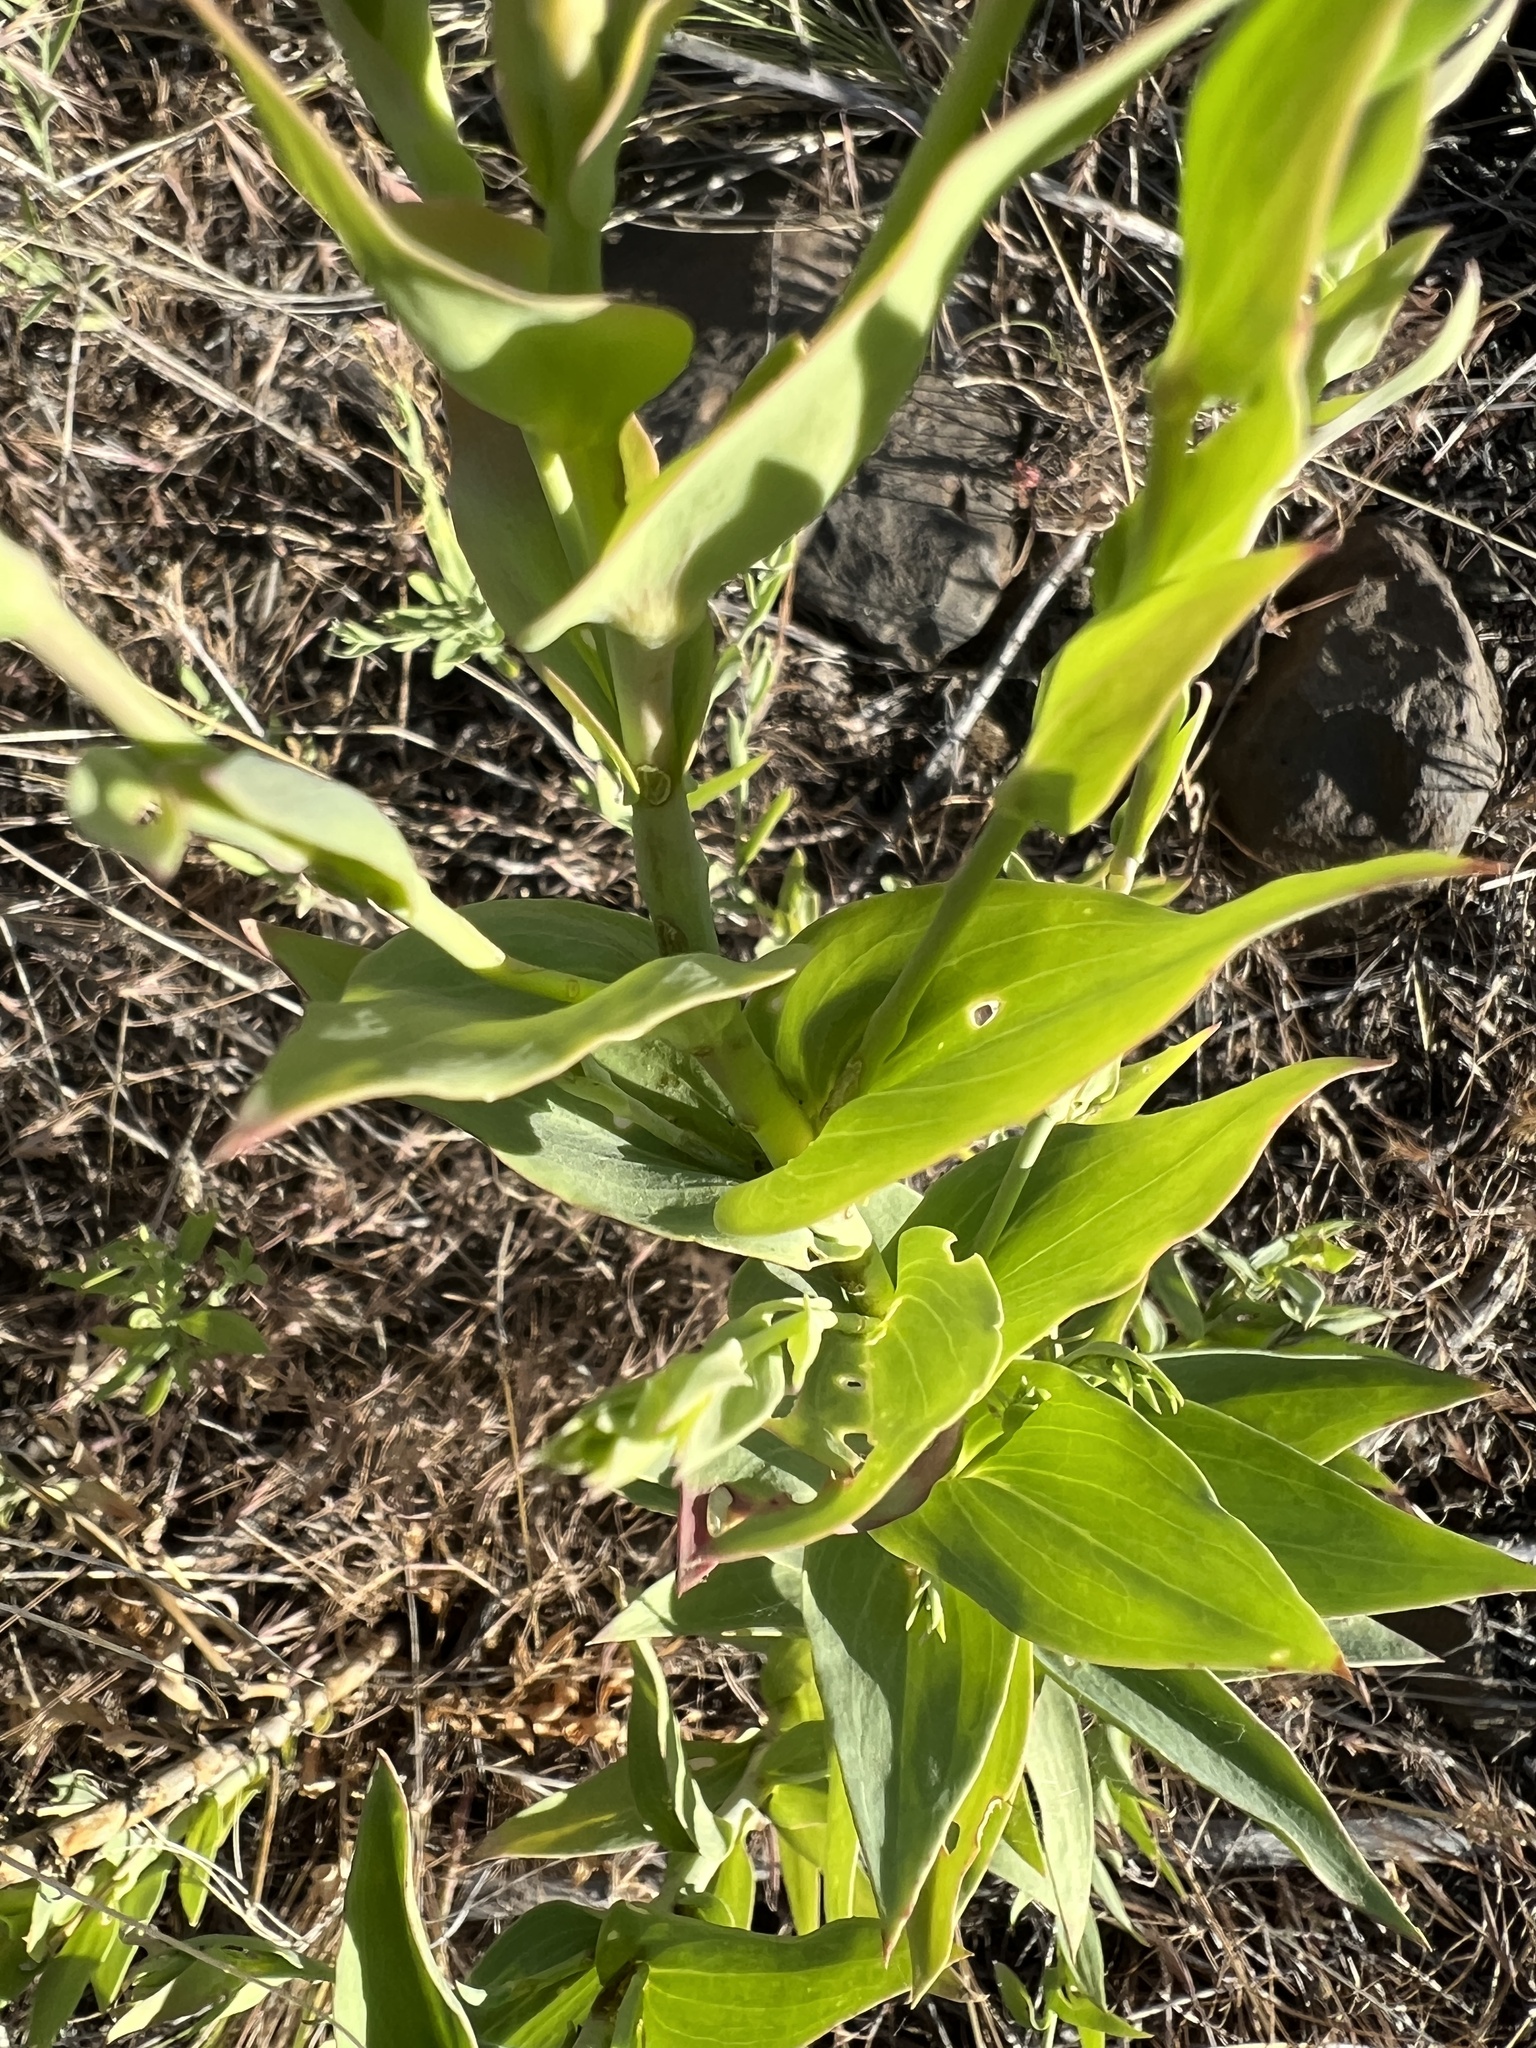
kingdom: Plantae
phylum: Tracheophyta
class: Magnoliopsida
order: Lamiales
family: Plantaginaceae
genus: Linaria
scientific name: Linaria dalmatica
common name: Dalmatian toadflax
